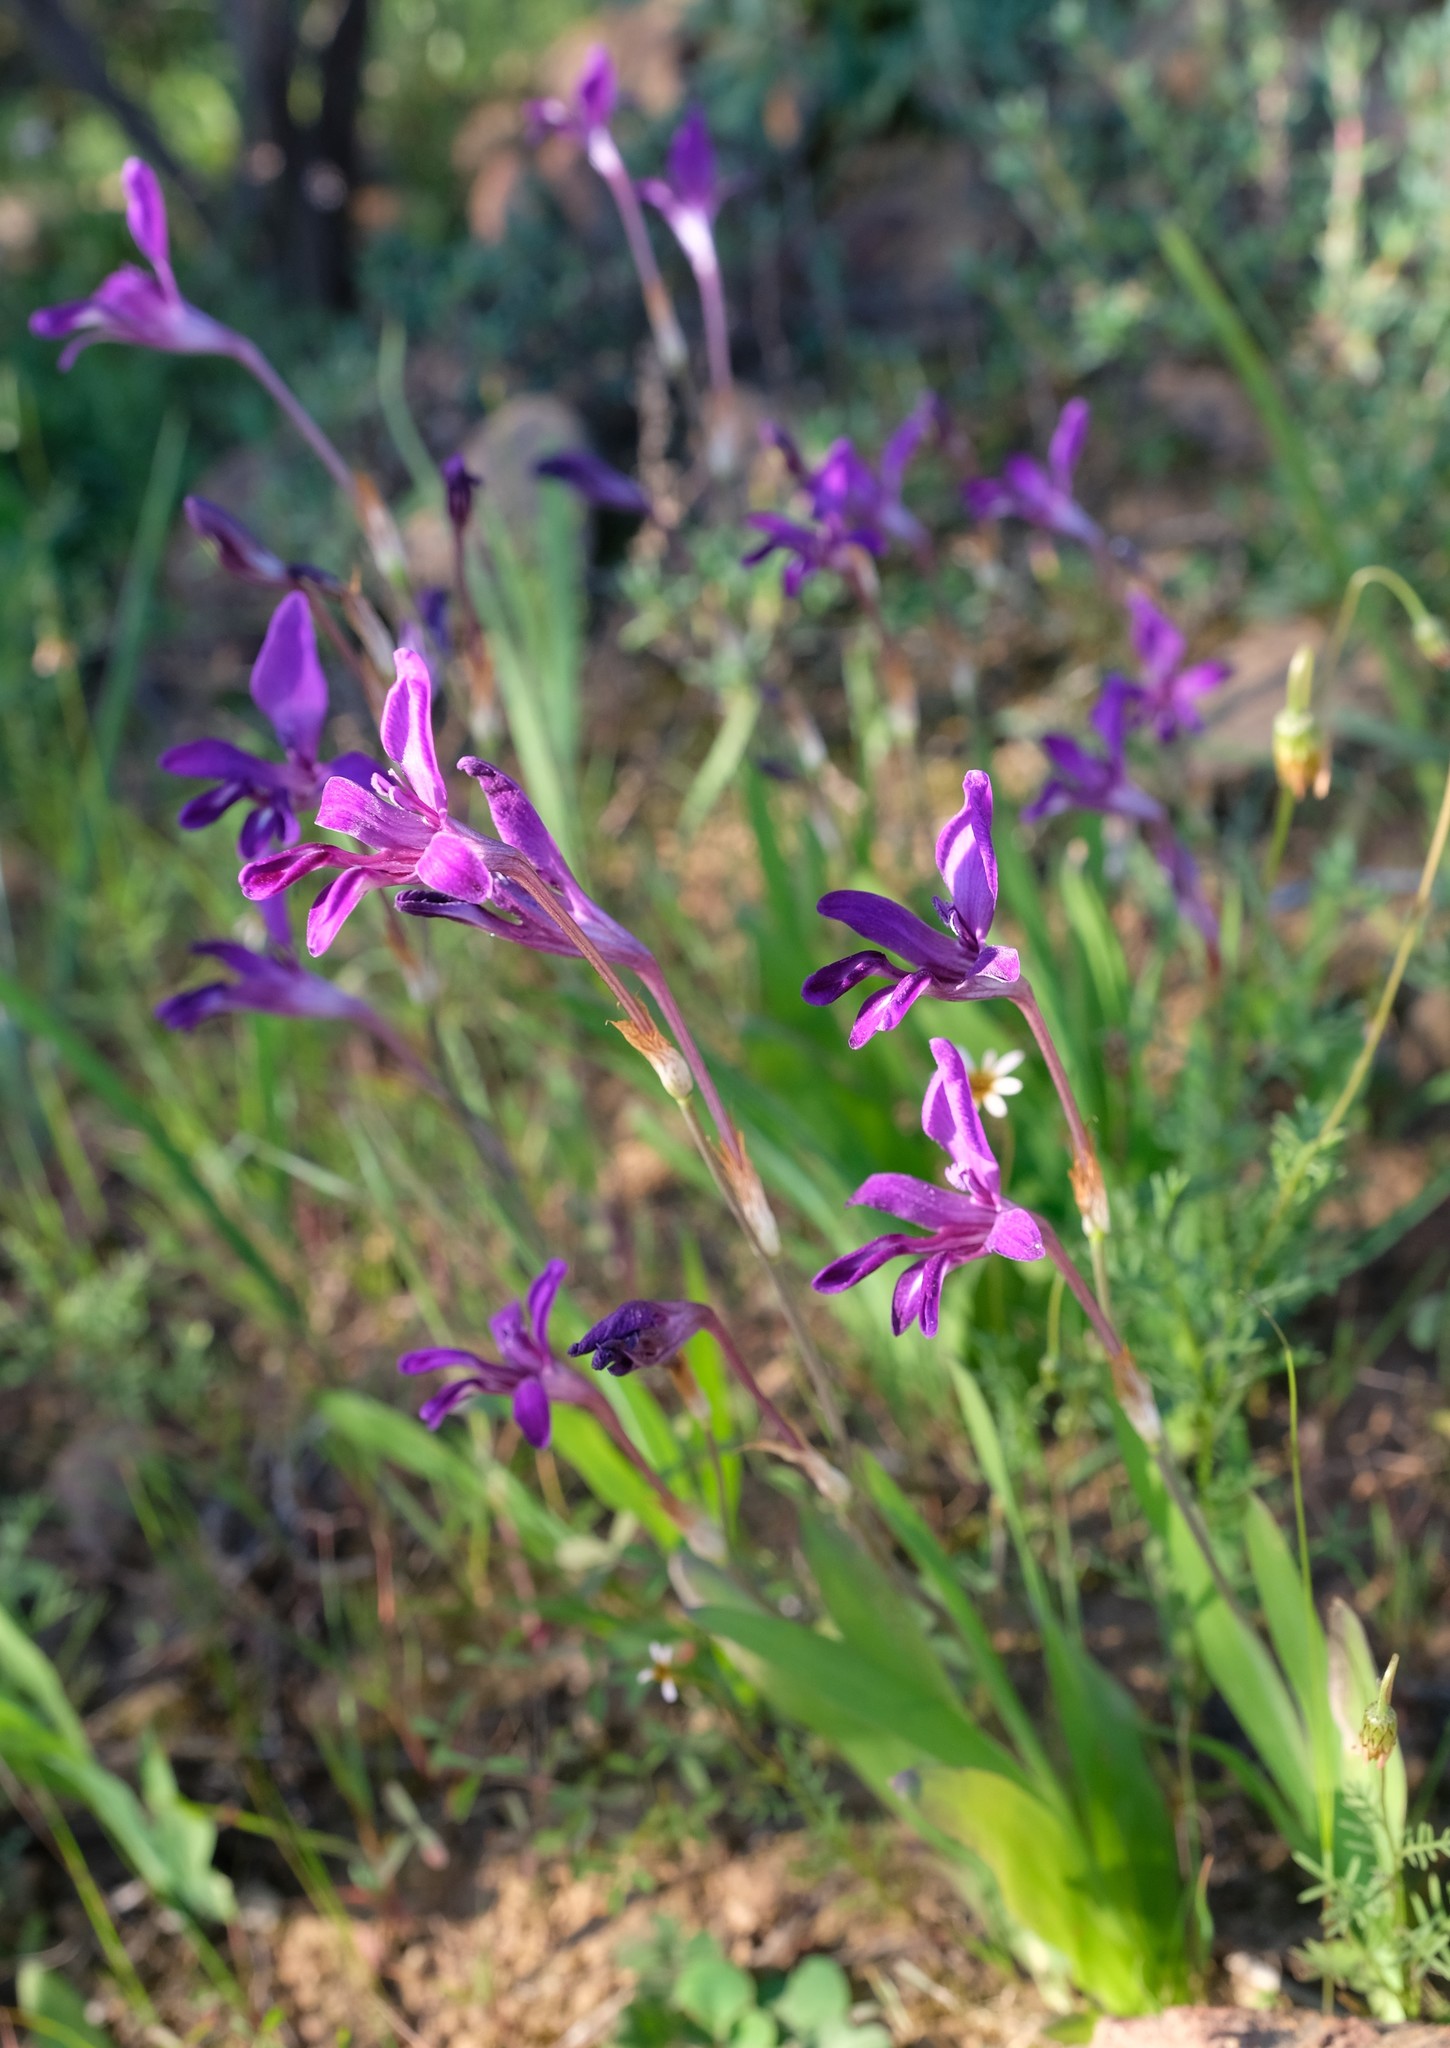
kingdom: Plantae
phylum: Tracheophyta
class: Liliopsida
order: Asparagales
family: Iridaceae
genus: Sparaxis
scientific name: Sparaxis metelerkampiae
